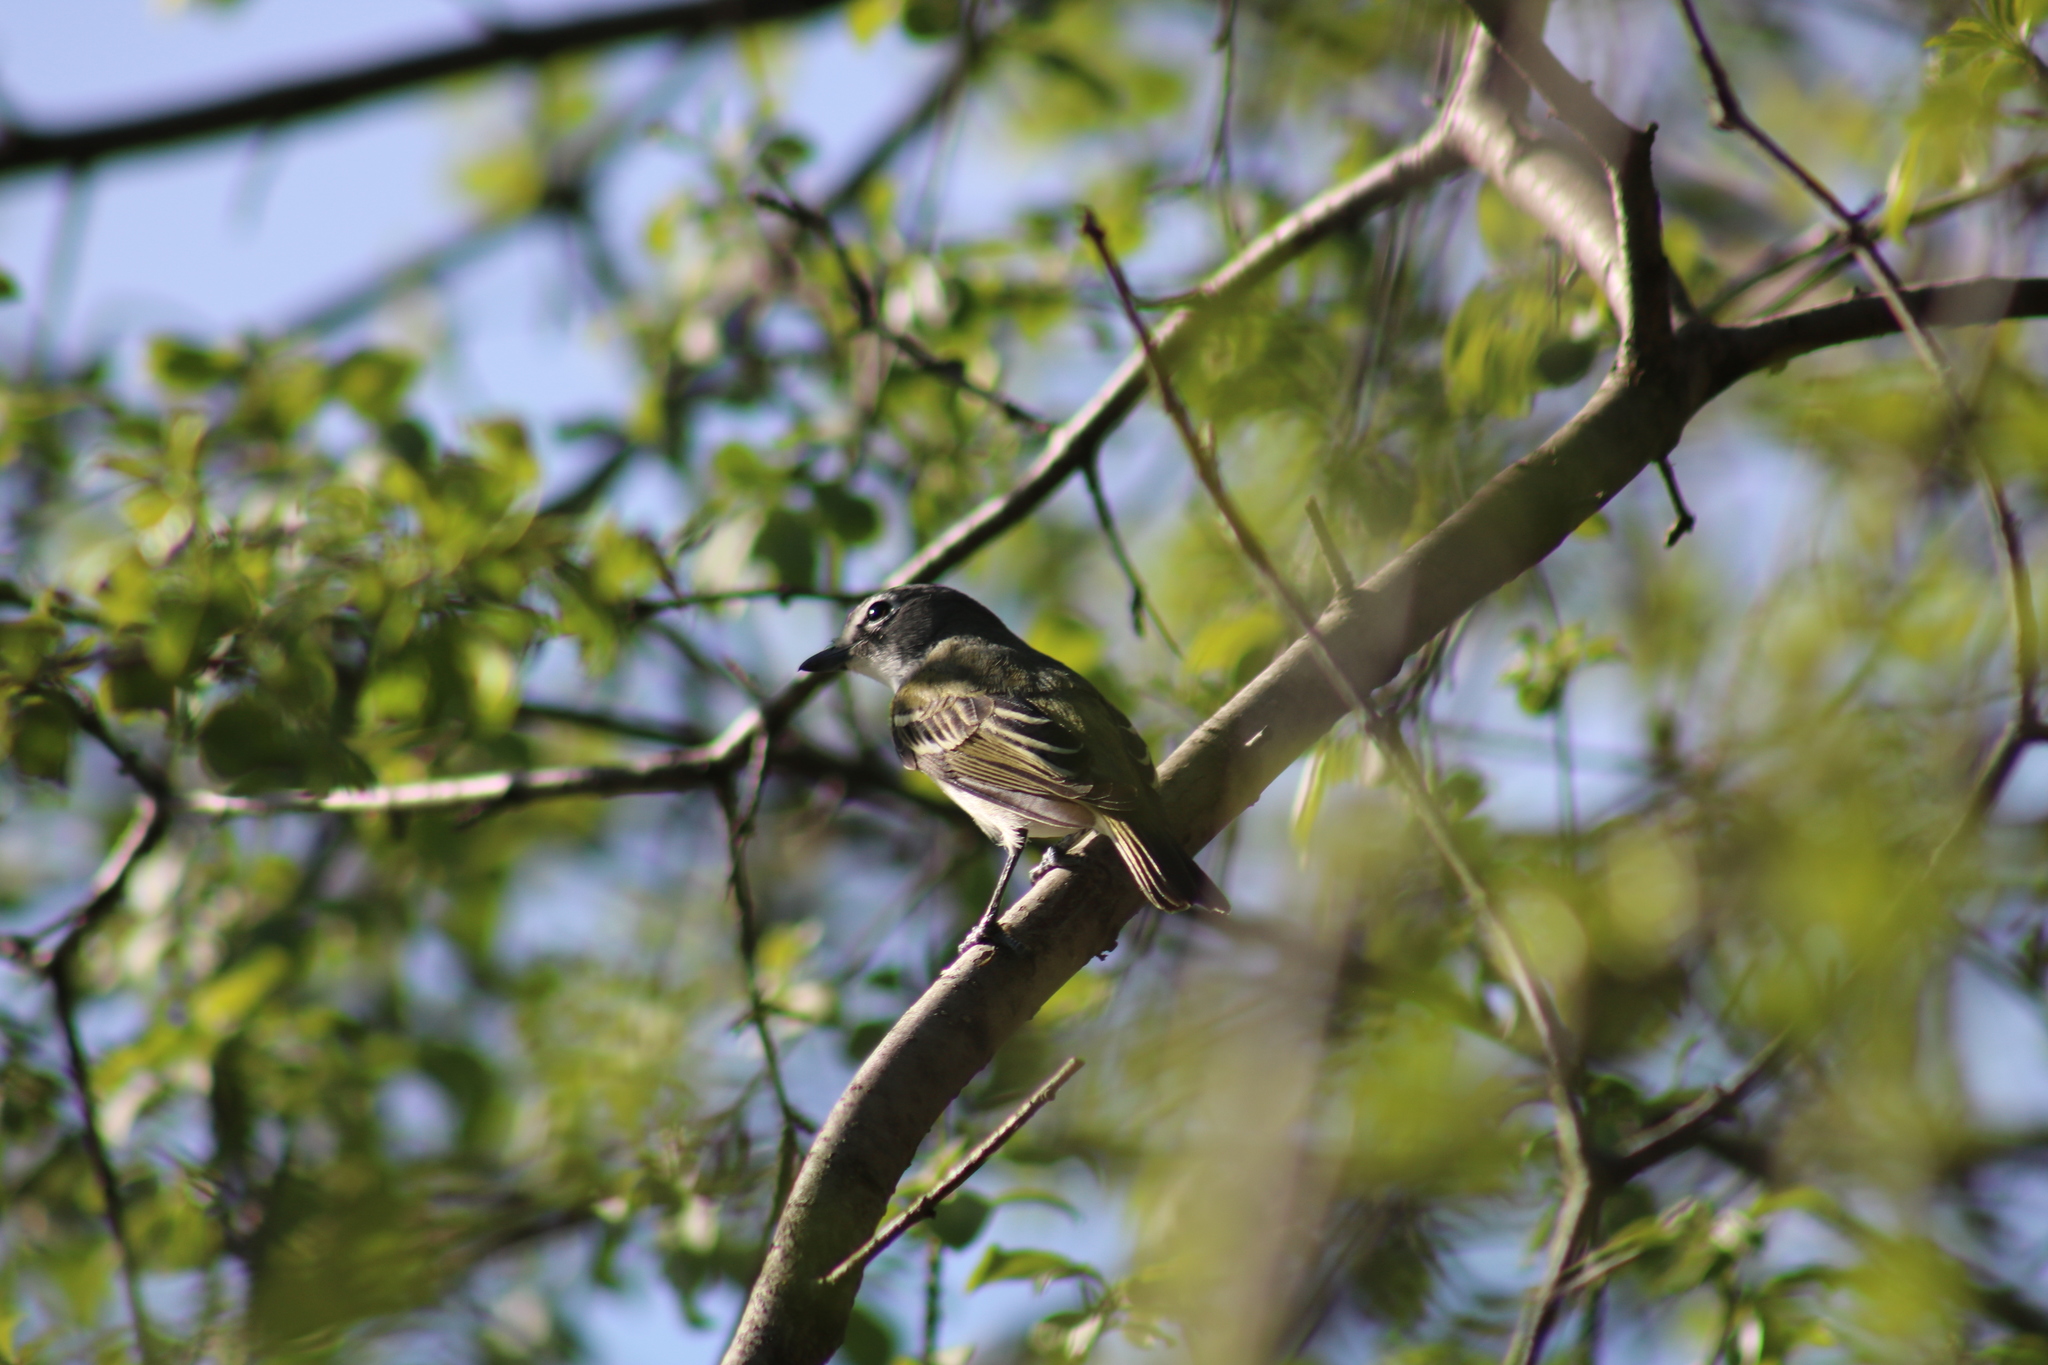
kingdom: Animalia
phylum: Chordata
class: Aves
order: Passeriformes
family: Vireonidae
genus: Vireo
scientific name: Vireo solitarius
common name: Blue-headed vireo
